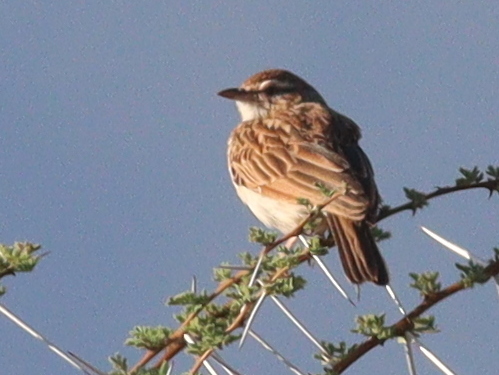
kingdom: Animalia
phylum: Chordata
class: Aves
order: Passeriformes
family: Alaudidae
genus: Calendulauda
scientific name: Calendulauda africanoides
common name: Fawn-colored lark
